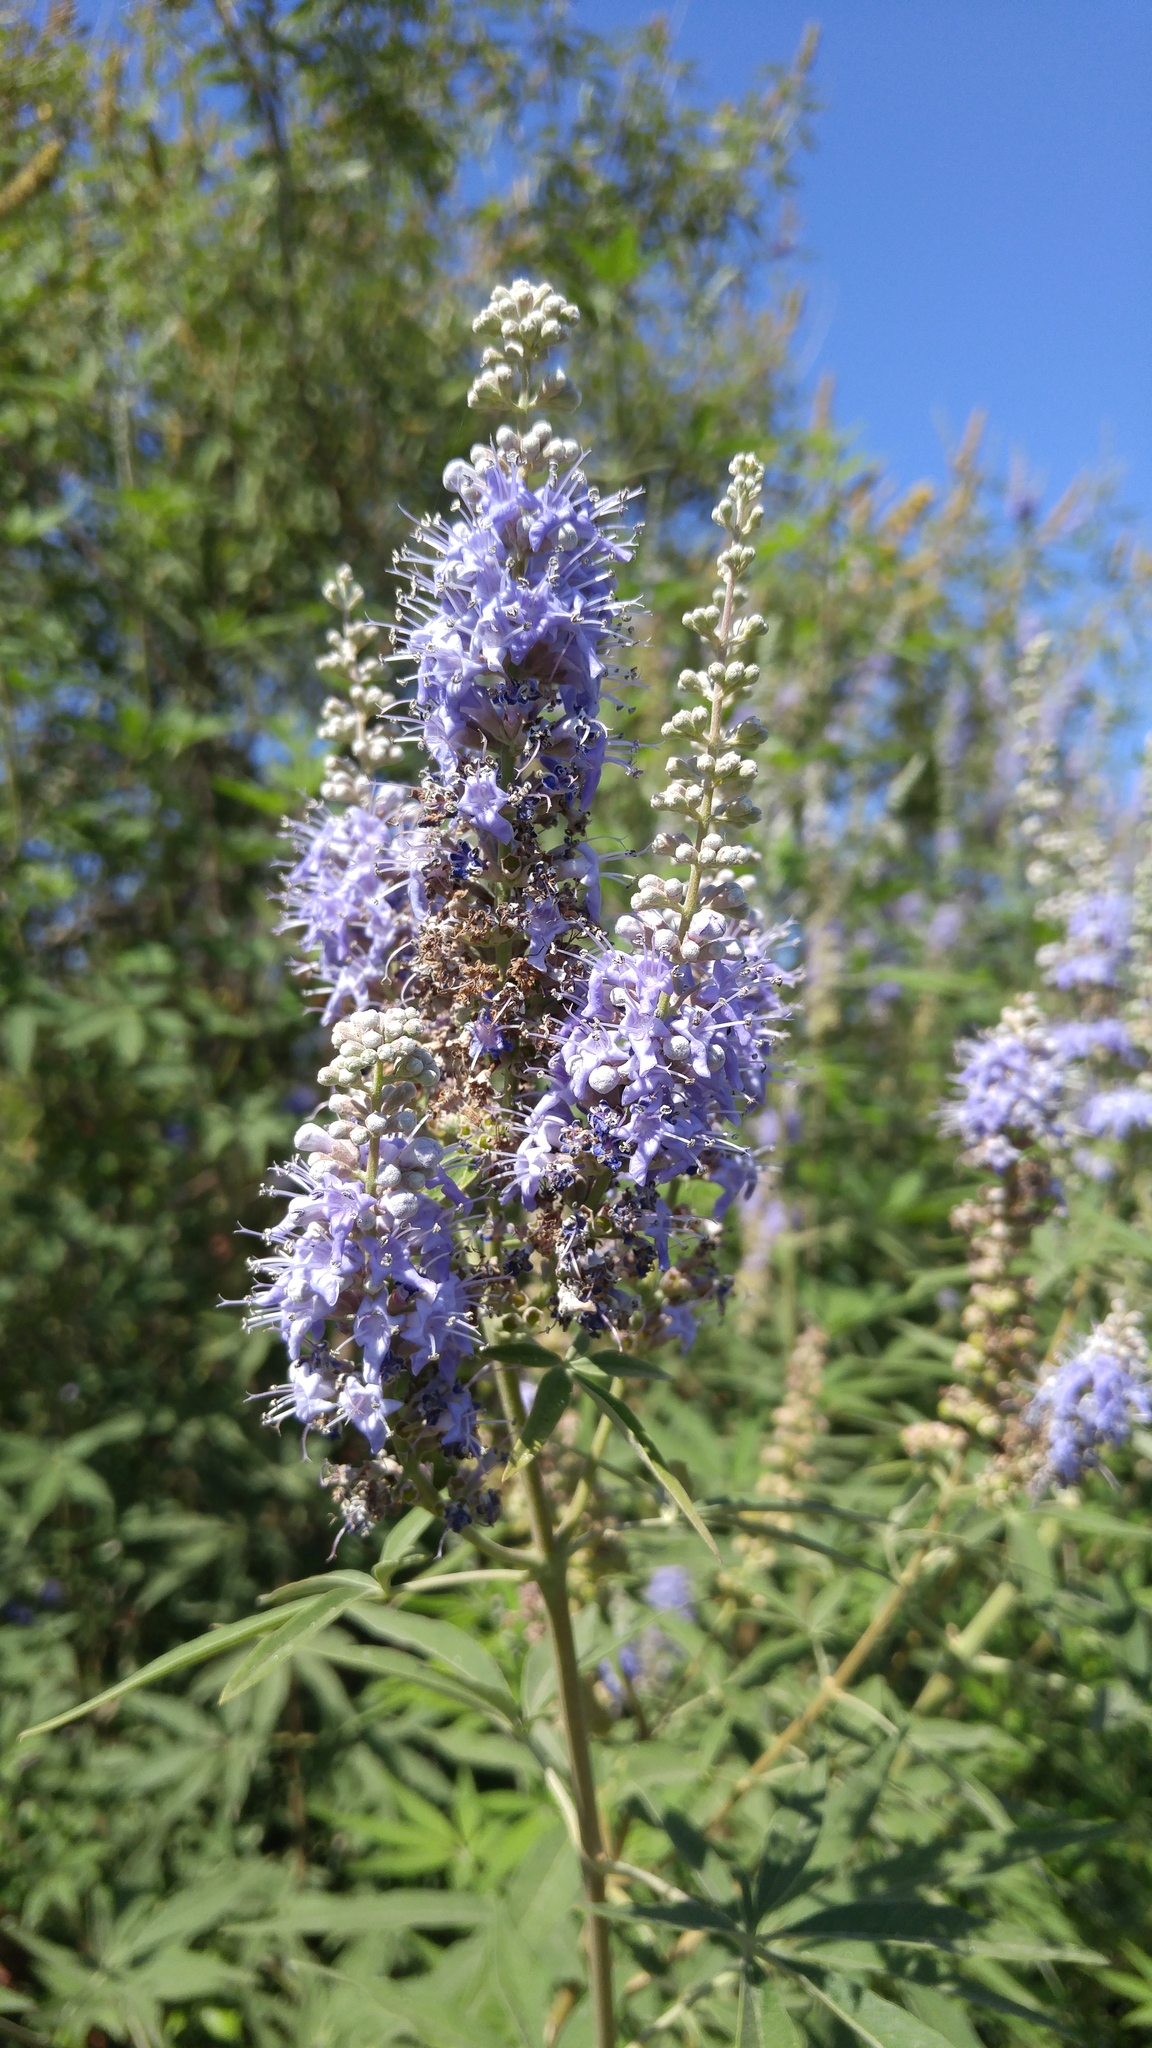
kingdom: Plantae
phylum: Tracheophyta
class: Magnoliopsida
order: Lamiales
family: Lamiaceae
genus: Vitex
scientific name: Vitex agnus-castus
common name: Chasteberry
